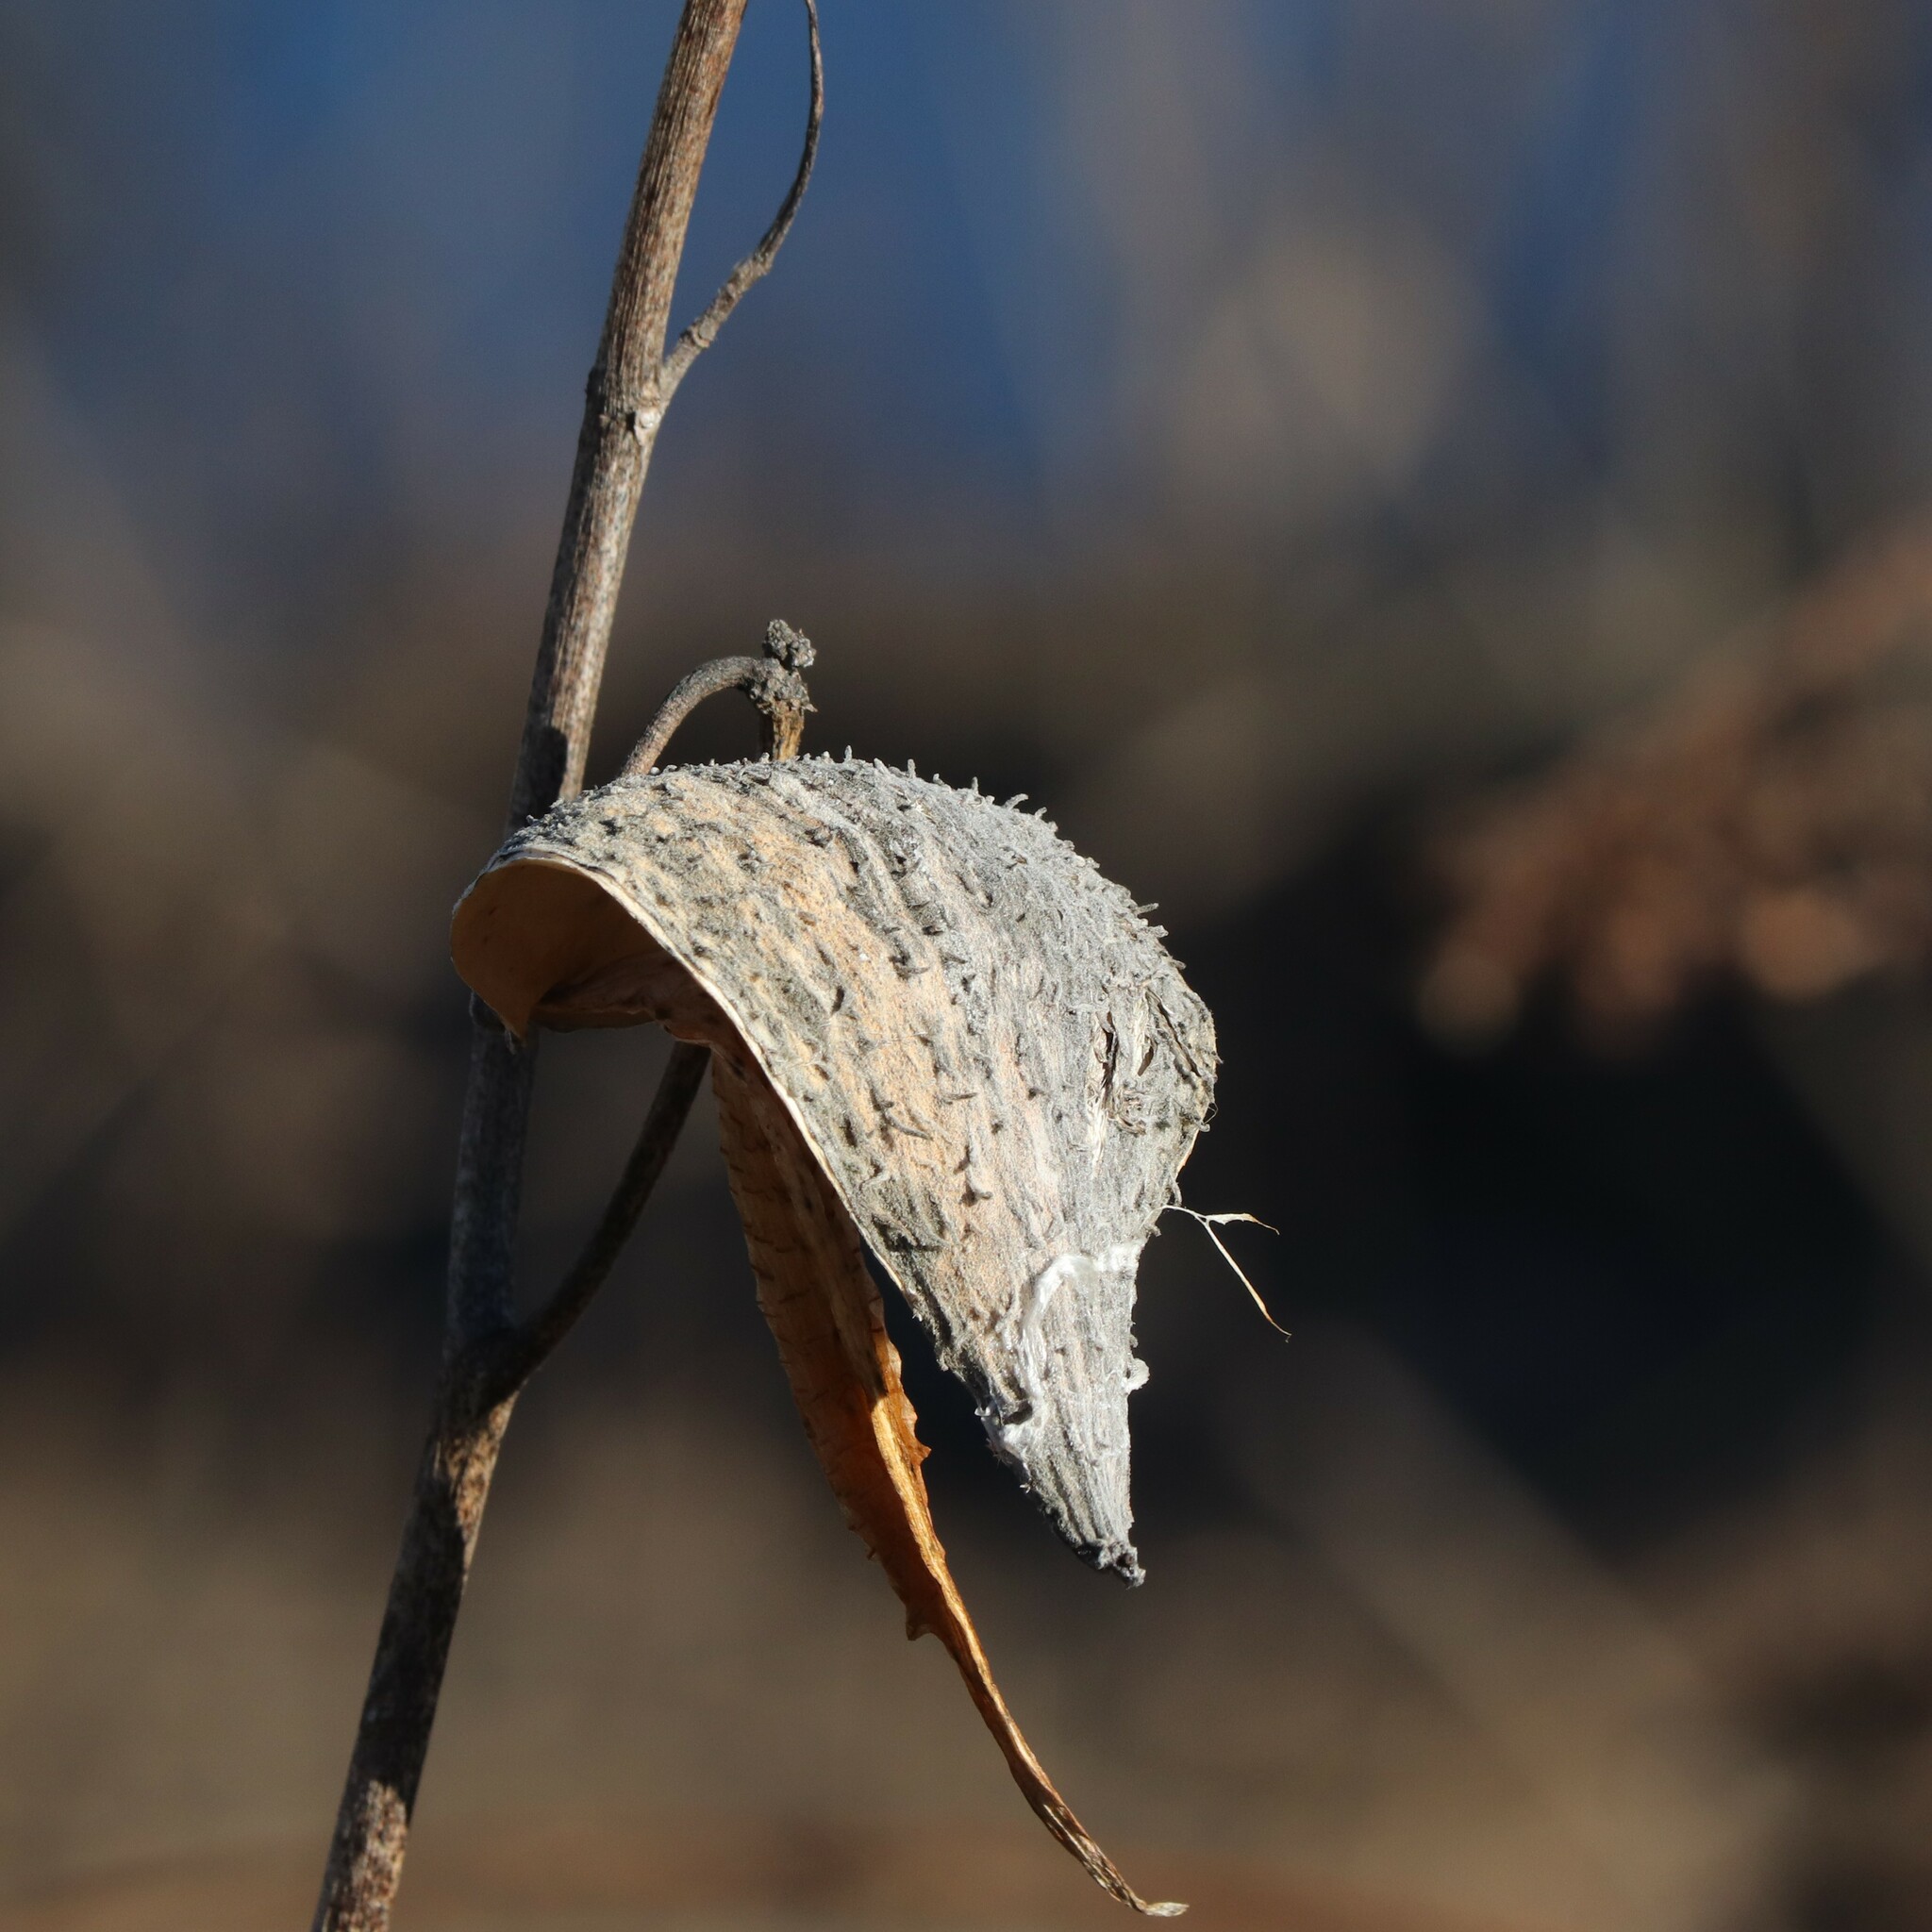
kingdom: Plantae
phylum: Tracheophyta
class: Magnoliopsida
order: Gentianales
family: Apocynaceae
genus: Asclepias
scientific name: Asclepias syriaca
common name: Common milkweed
